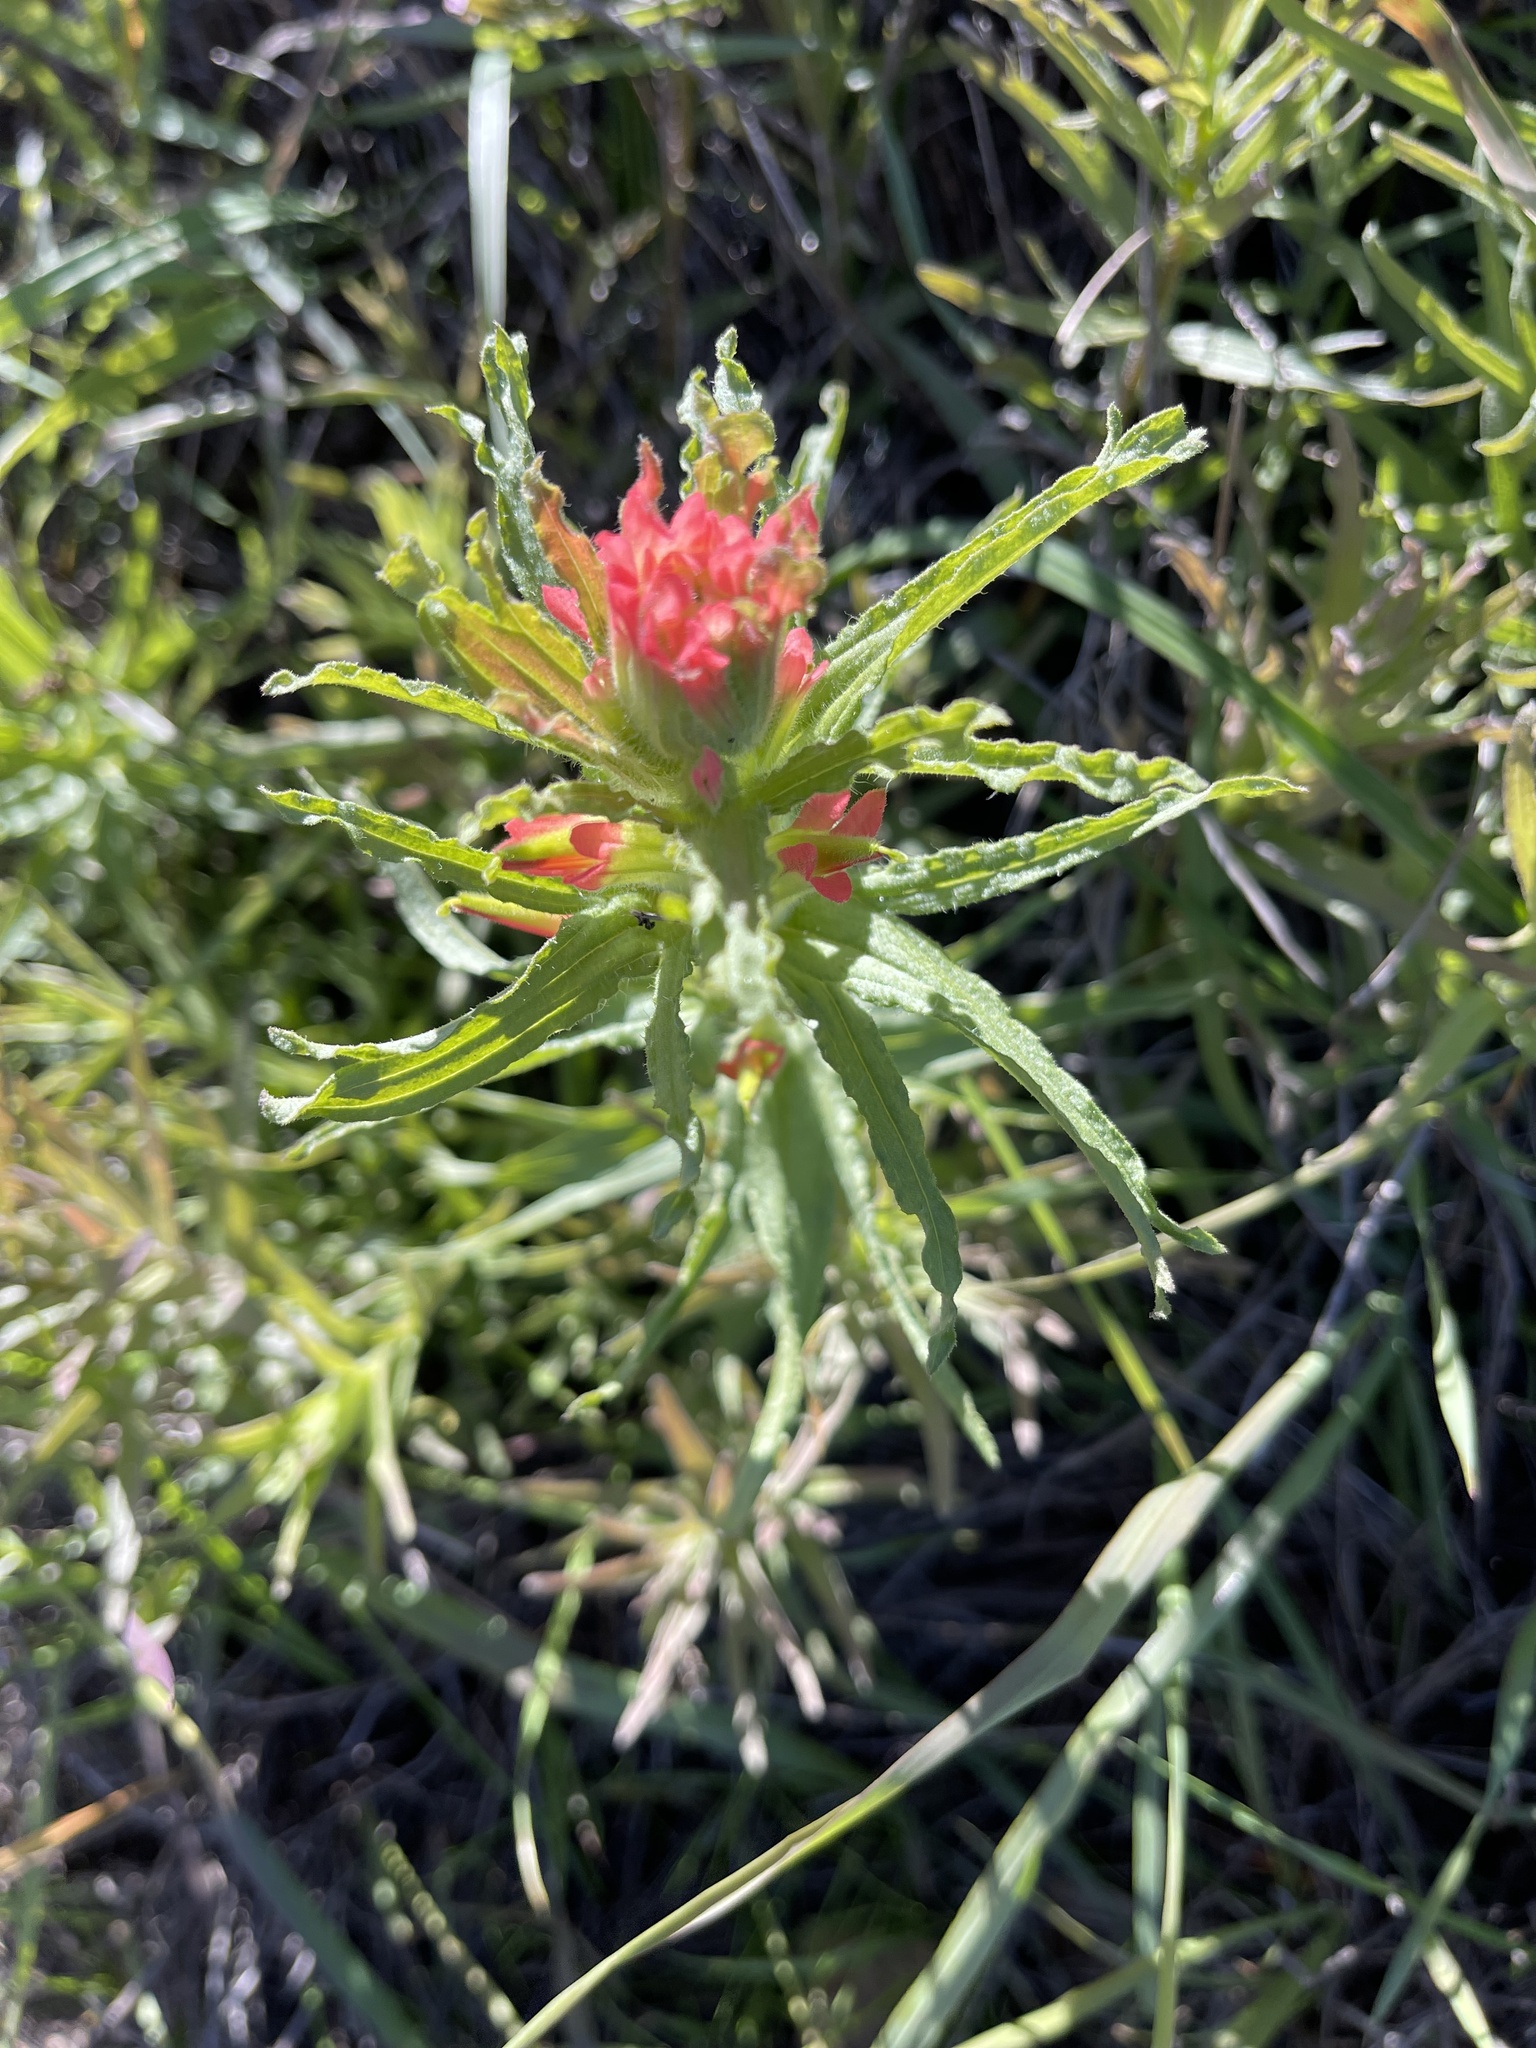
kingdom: Plantae
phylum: Tracheophyta
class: Magnoliopsida
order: Lamiales
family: Orobanchaceae
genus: Castilleja
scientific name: Castilleja affinis
